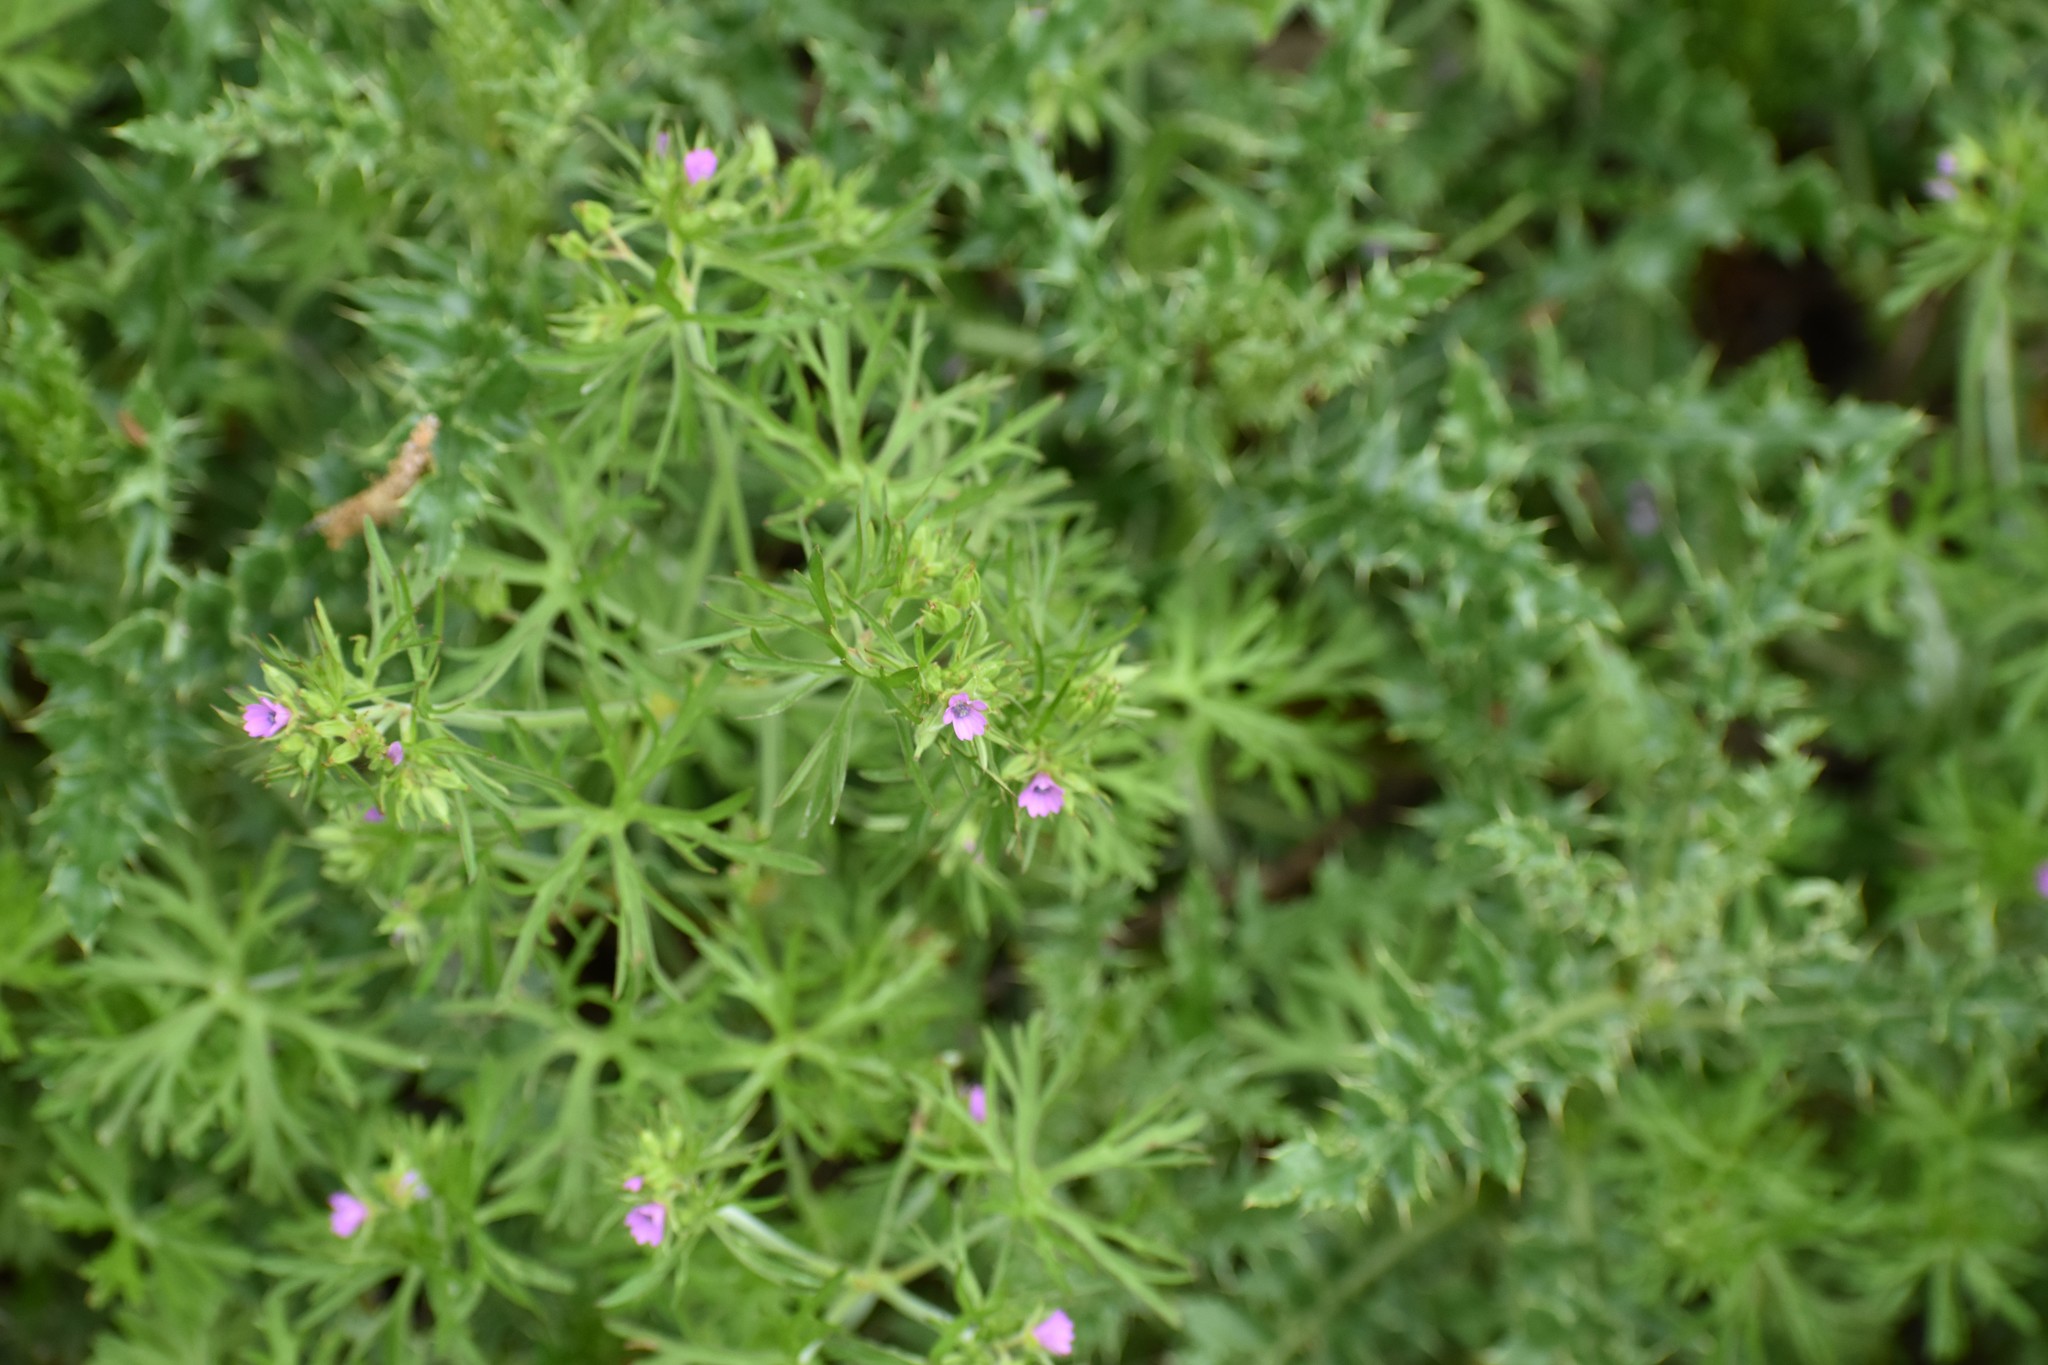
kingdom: Plantae
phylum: Tracheophyta
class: Magnoliopsida
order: Geraniales
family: Geraniaceae
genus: Geranium
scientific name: Geranium dissectum
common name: Cut-leaved crane's-bill
